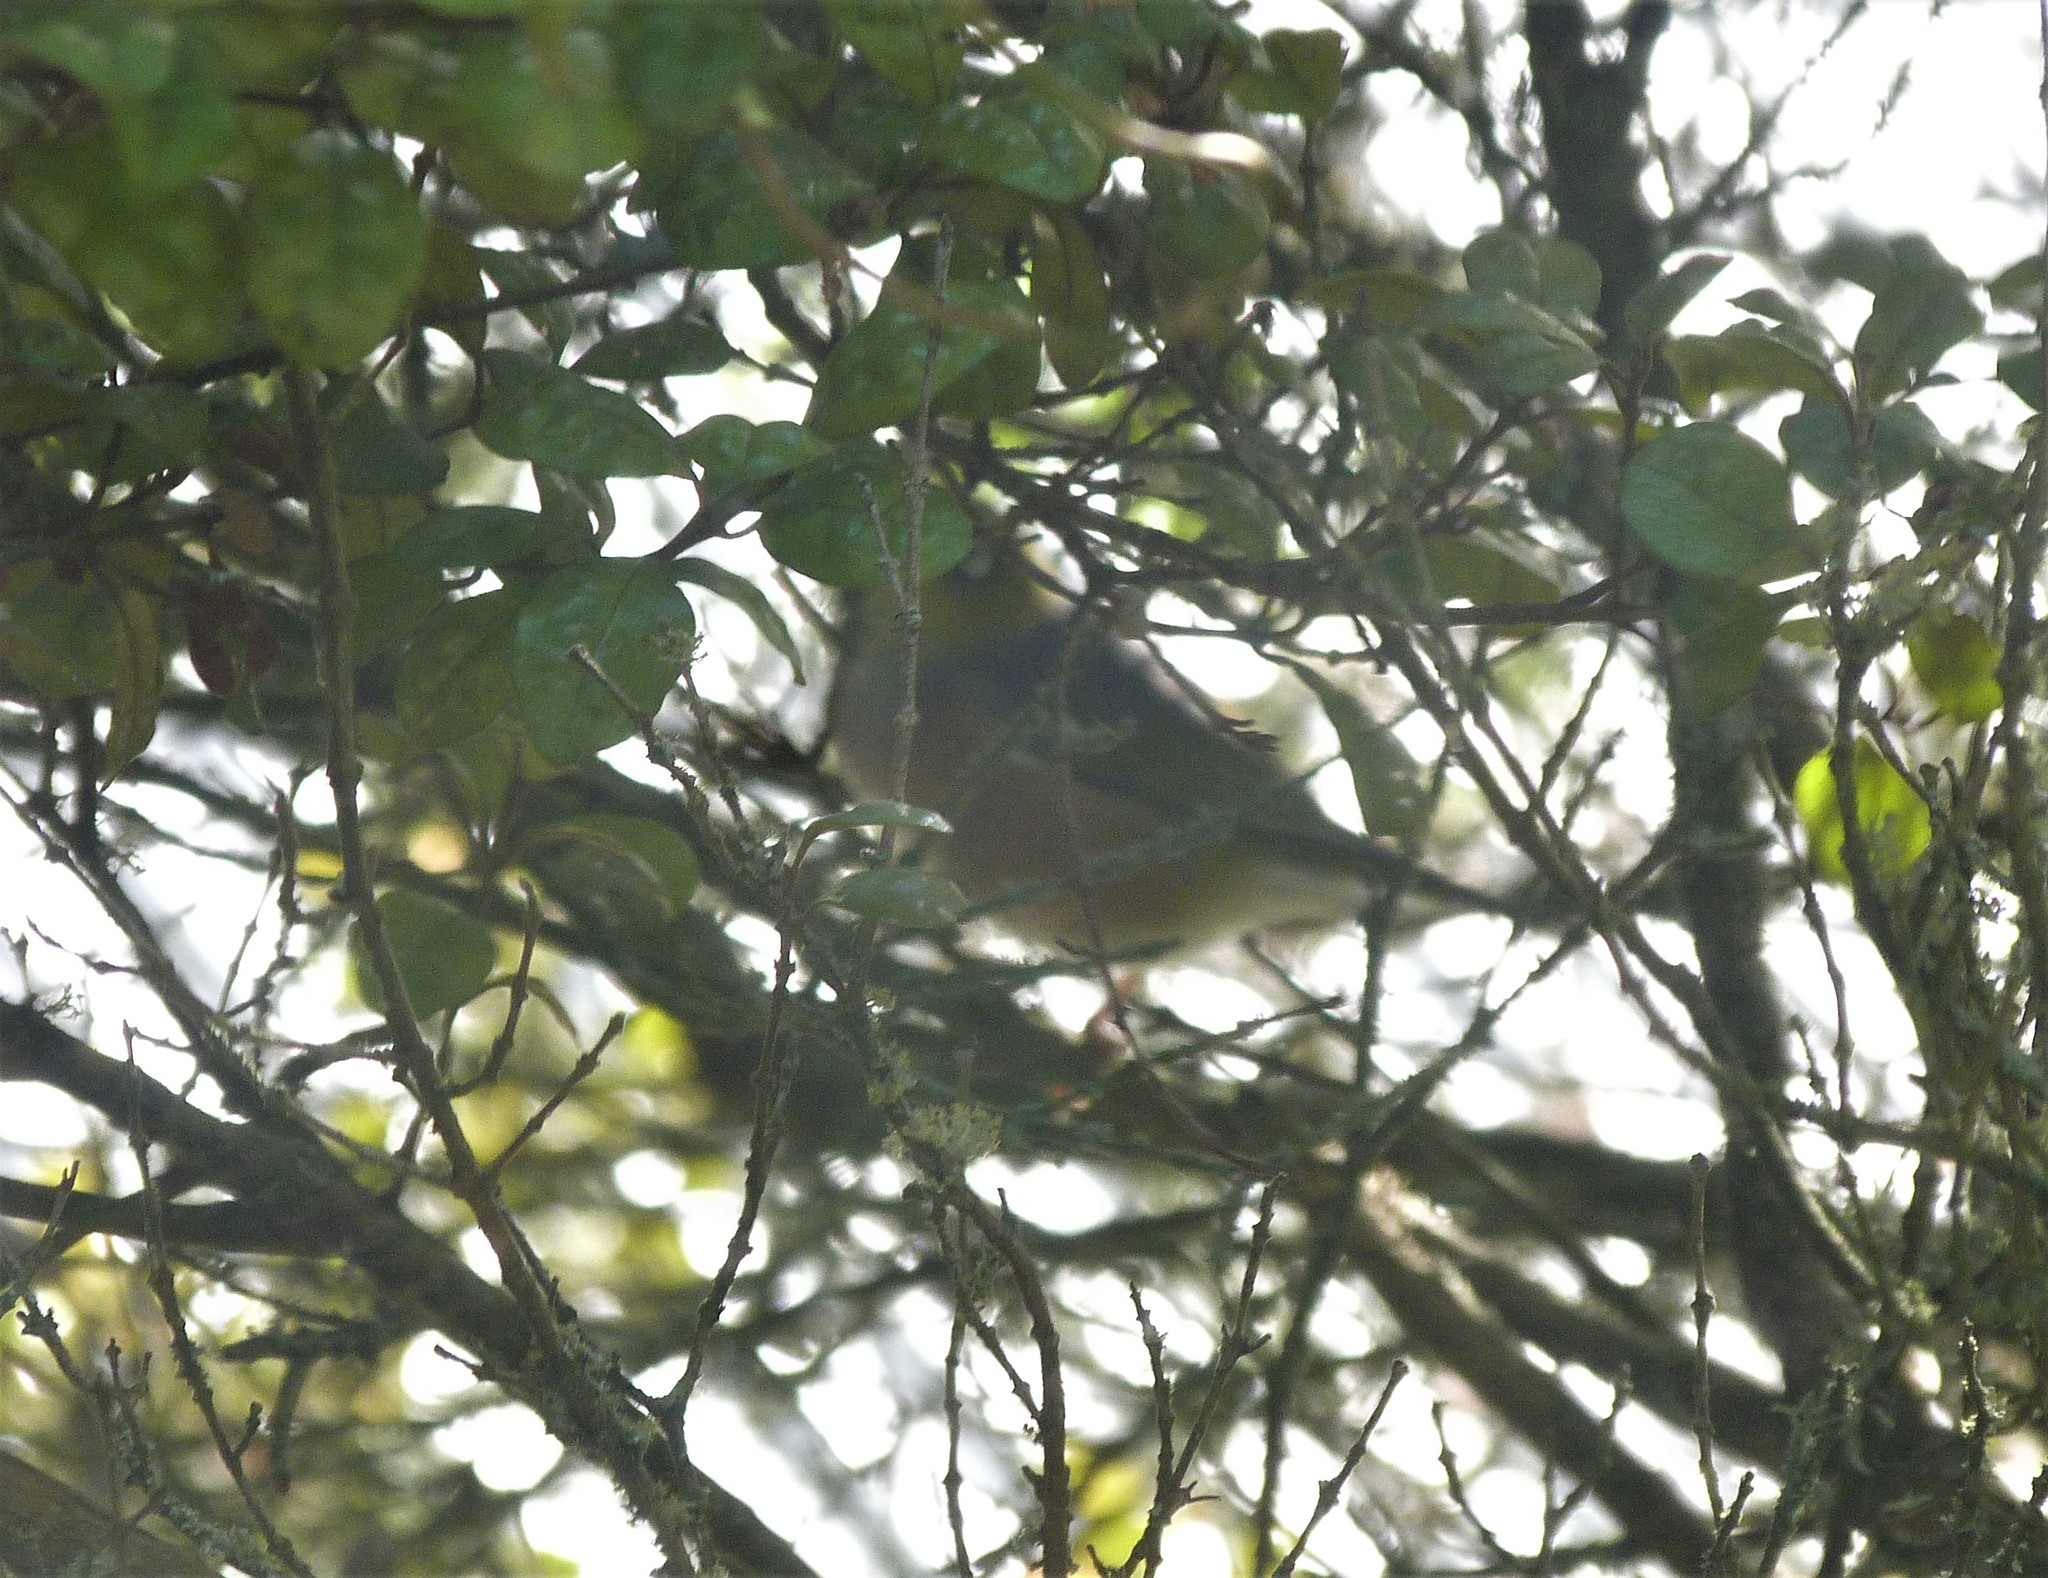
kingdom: Animalia
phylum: Chordata
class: Aves
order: Passeriformes
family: Acanthizidae
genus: Gerygone
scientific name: Gerygone igata
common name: Grey gerygone
